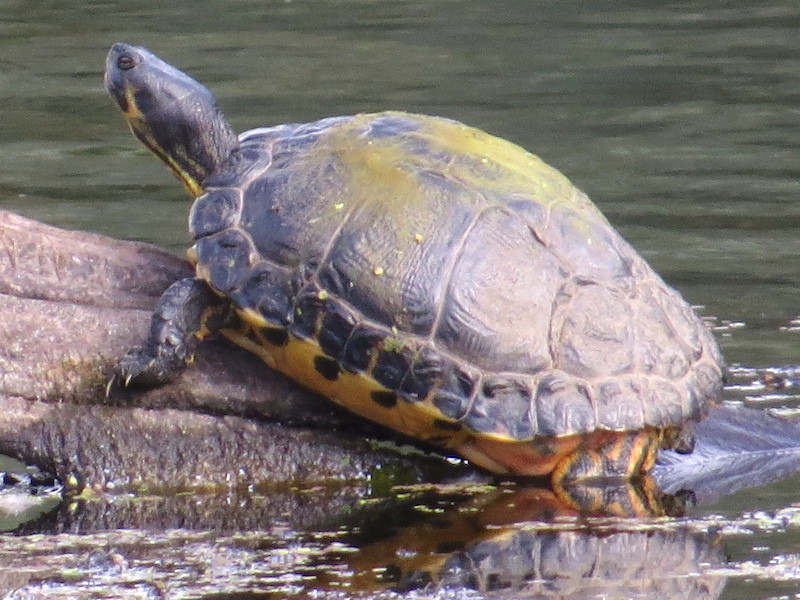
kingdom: Animalia
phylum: Chordata
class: Testudines
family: Emydidae
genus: Trachemys
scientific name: Trachemys scripta
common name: Slider
